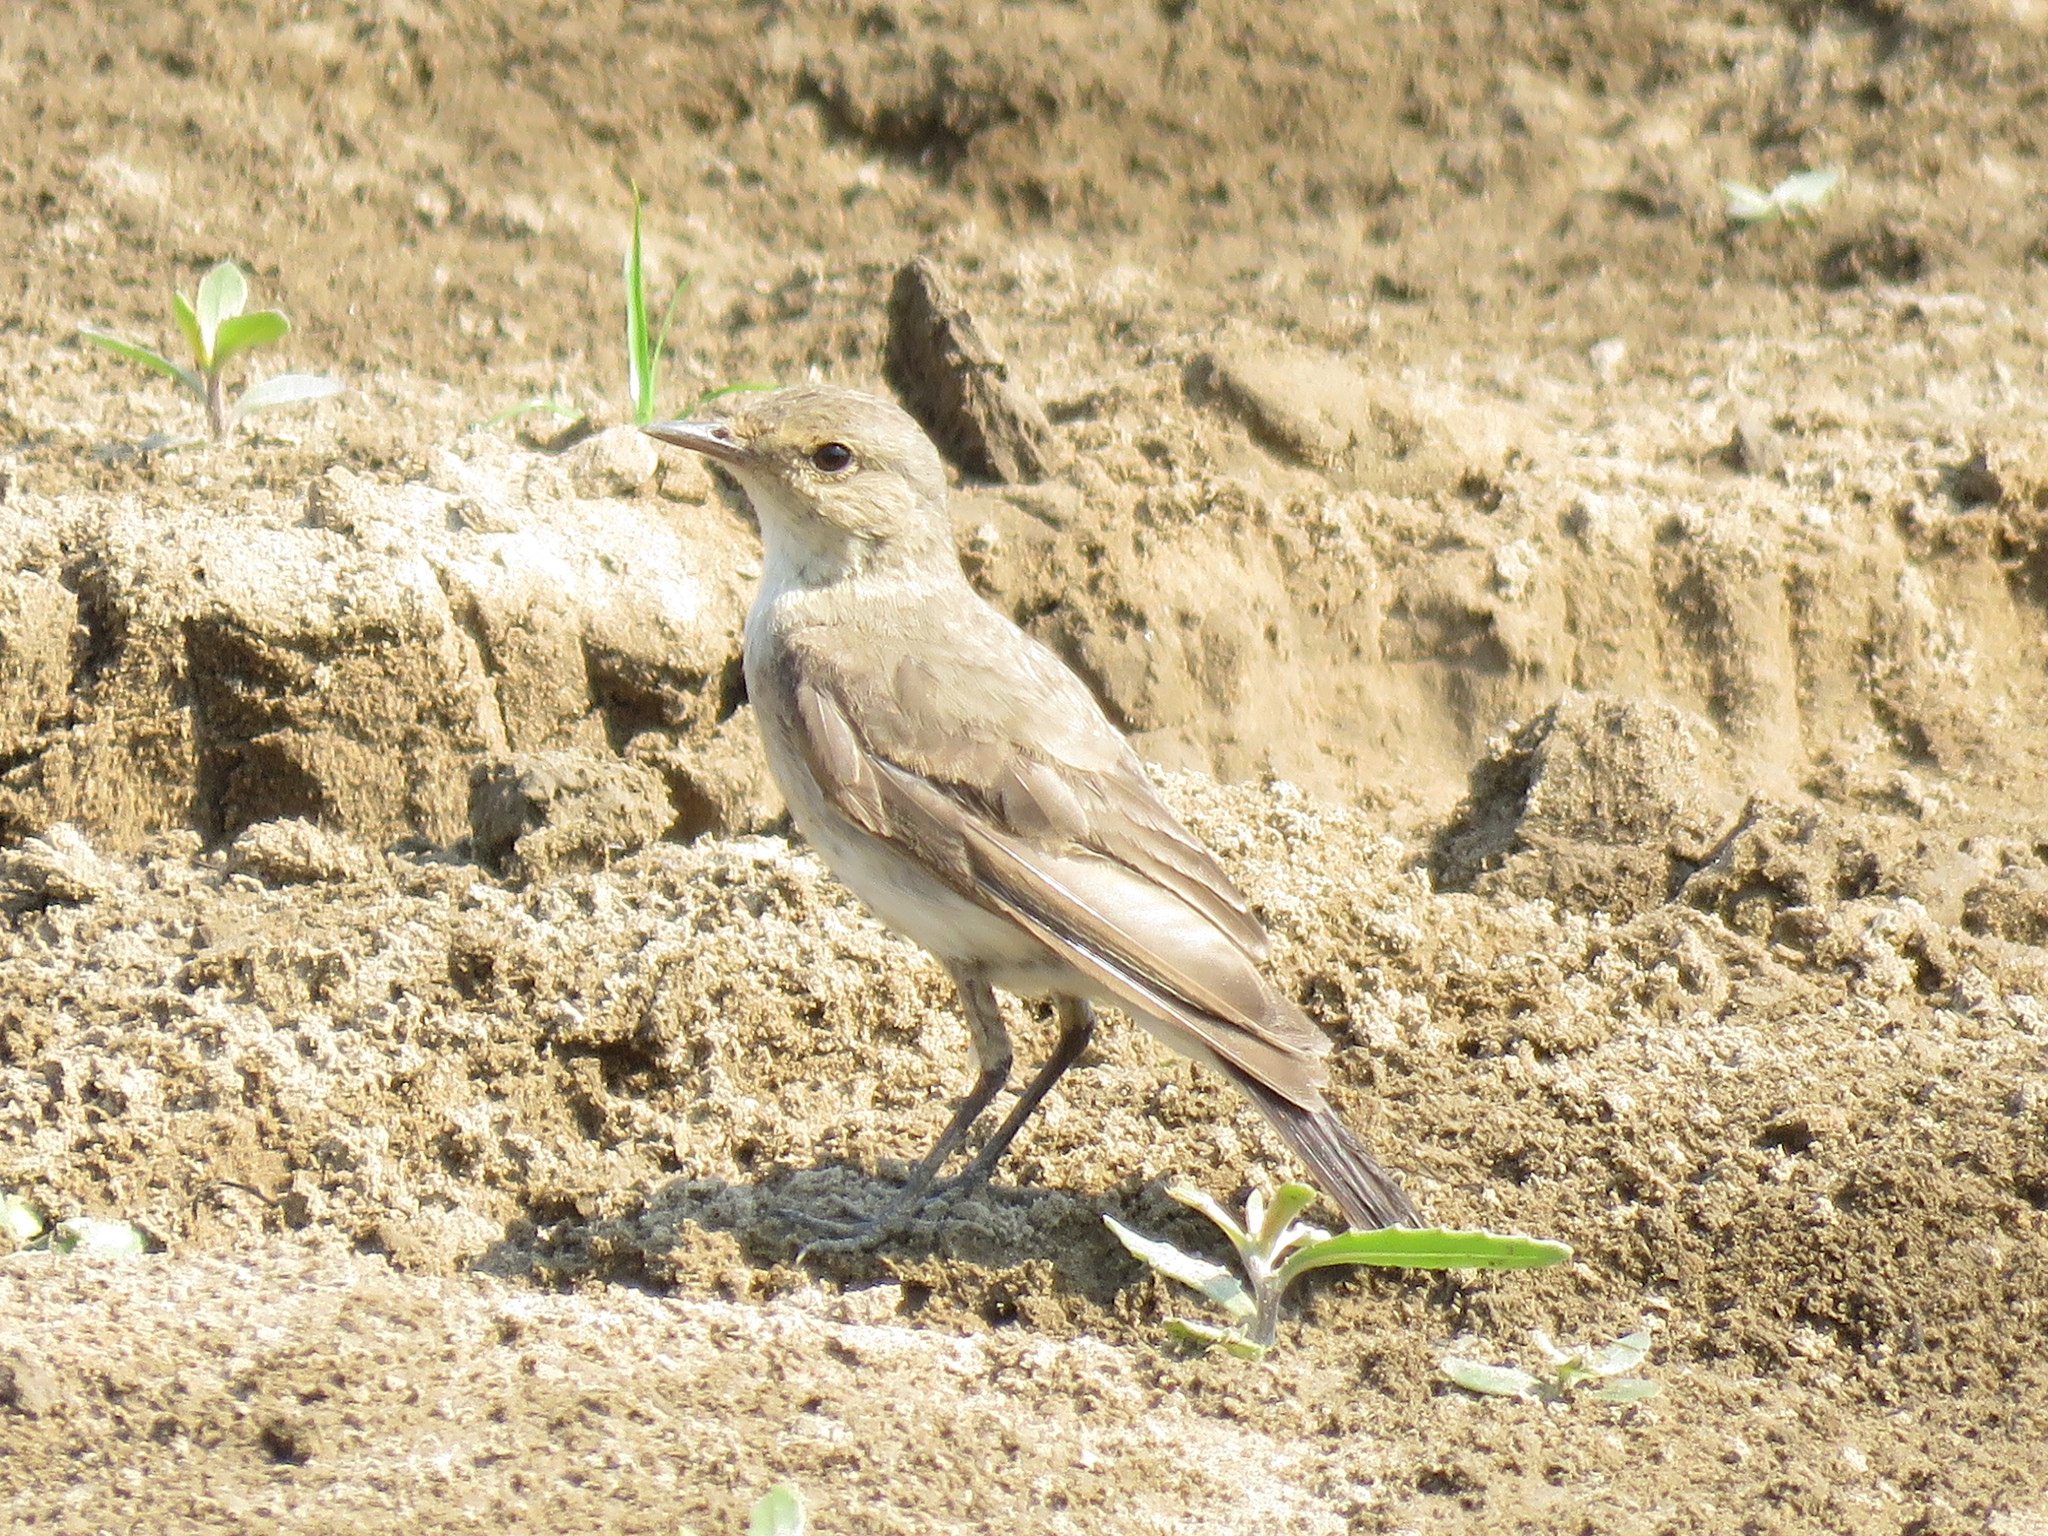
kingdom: Animalia
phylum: Chordata
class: Aves
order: Passeriformes
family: Tyrannidae
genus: Muscisaxicola
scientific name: Muscisaxicola fluviatilis
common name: Little ground tyrant
